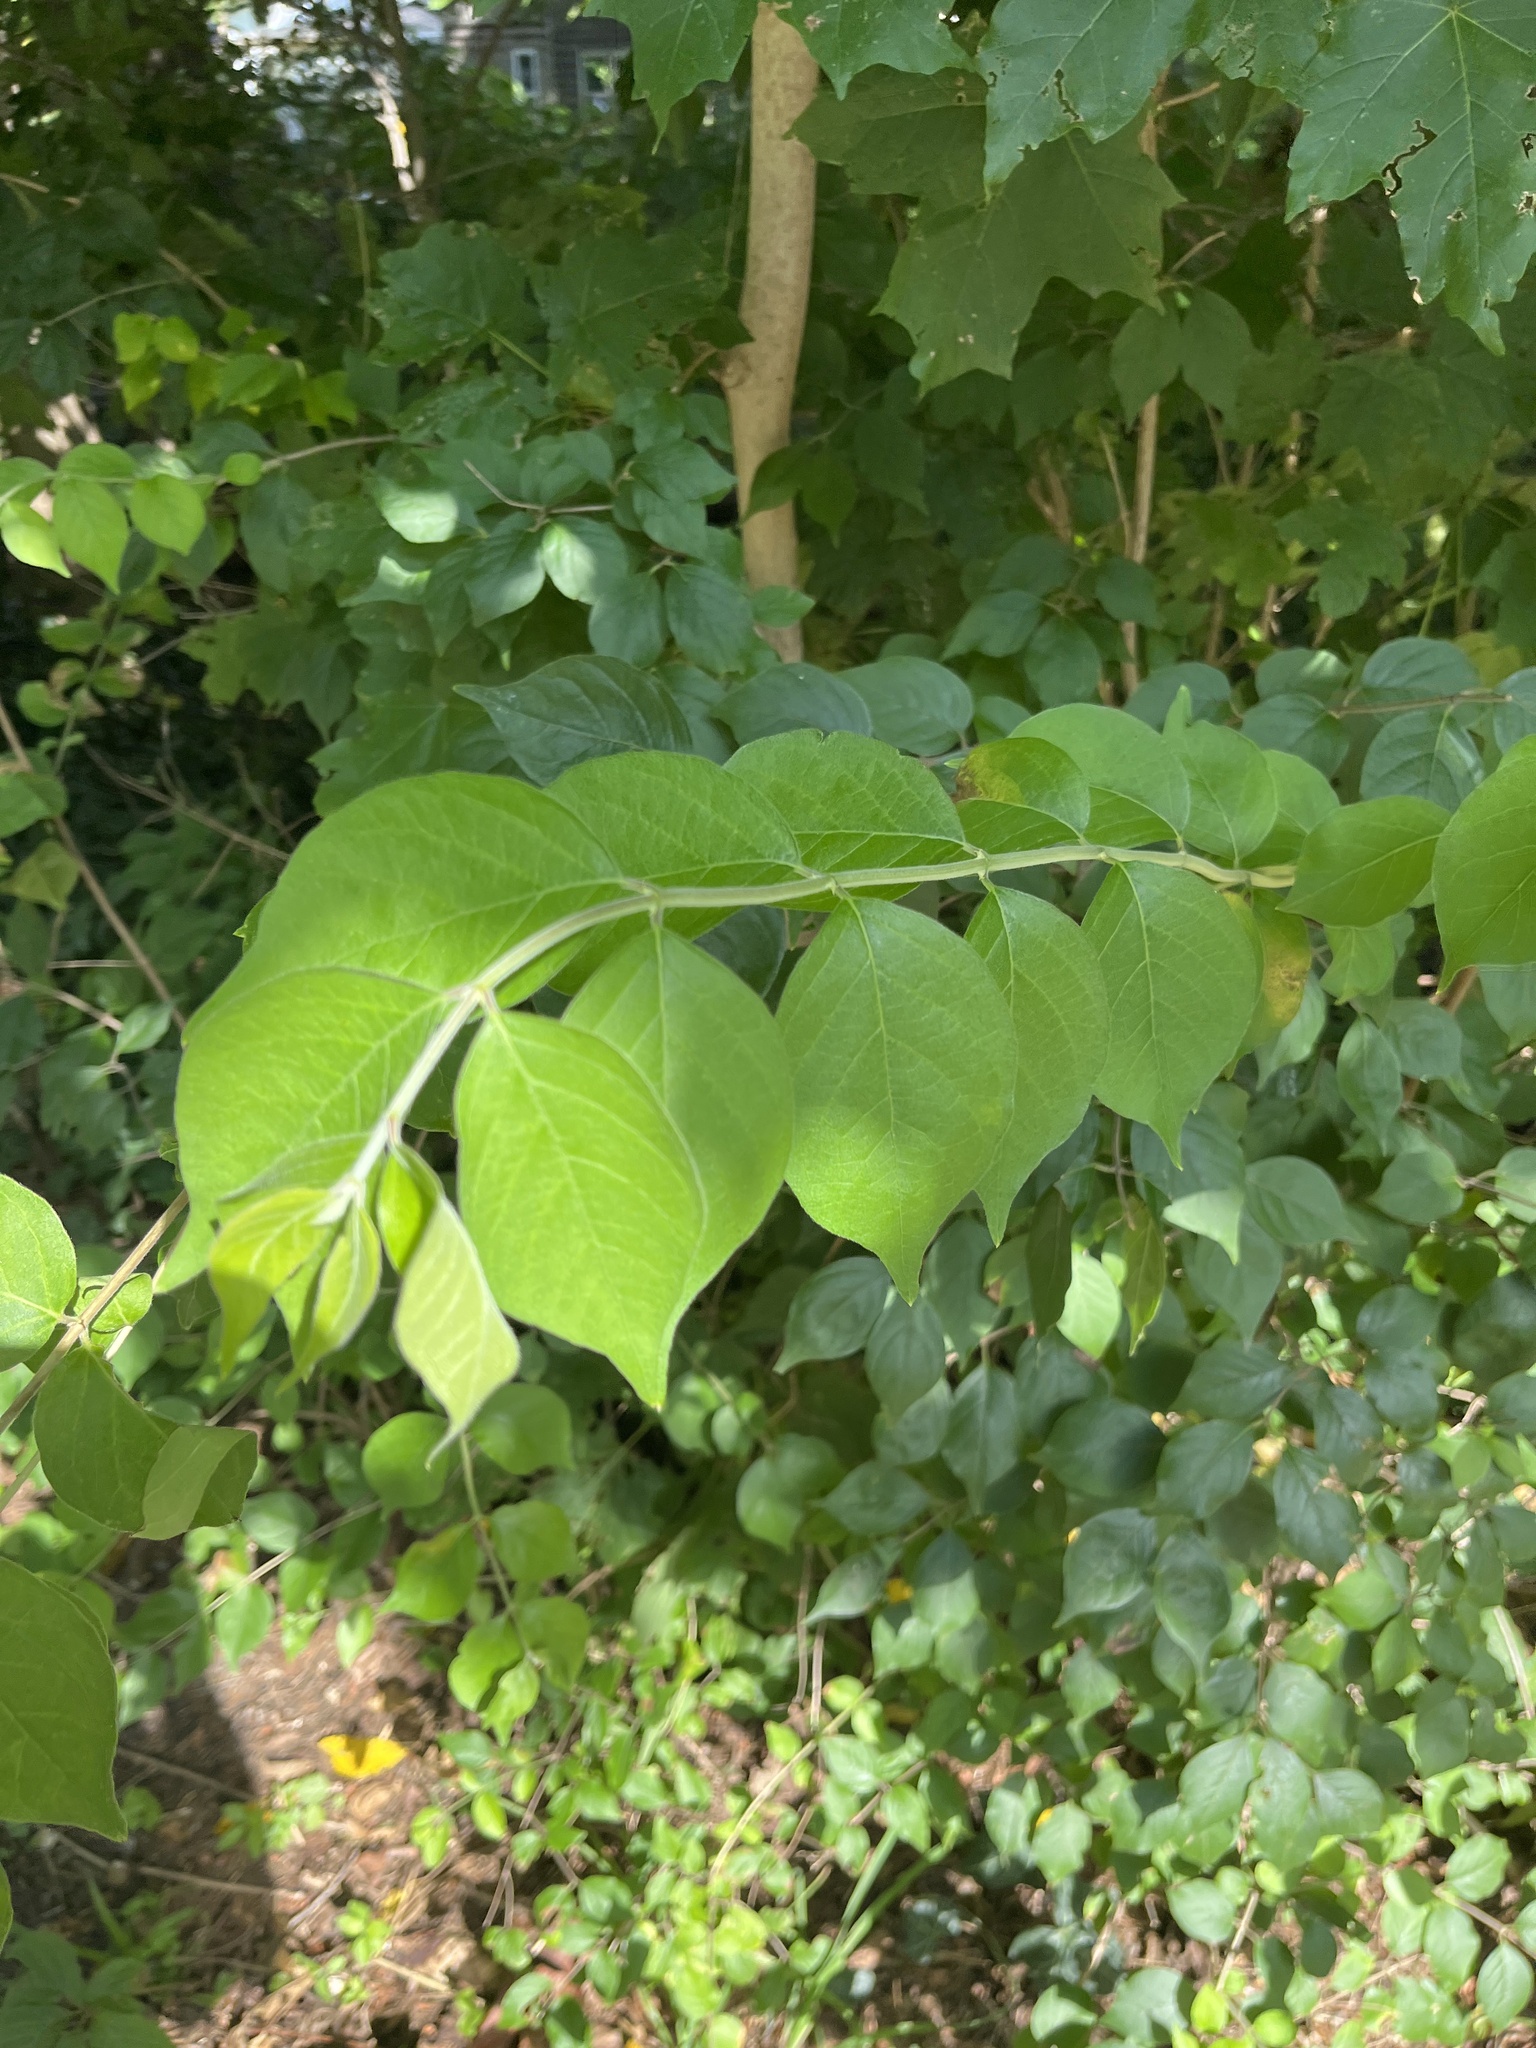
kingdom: Plantae
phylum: Tracheophyta
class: Magnoliopsida
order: Dipsacales
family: Caprifoliaceae
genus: Lonicera
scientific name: Lonicera maackii
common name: Amur honeysuckle
